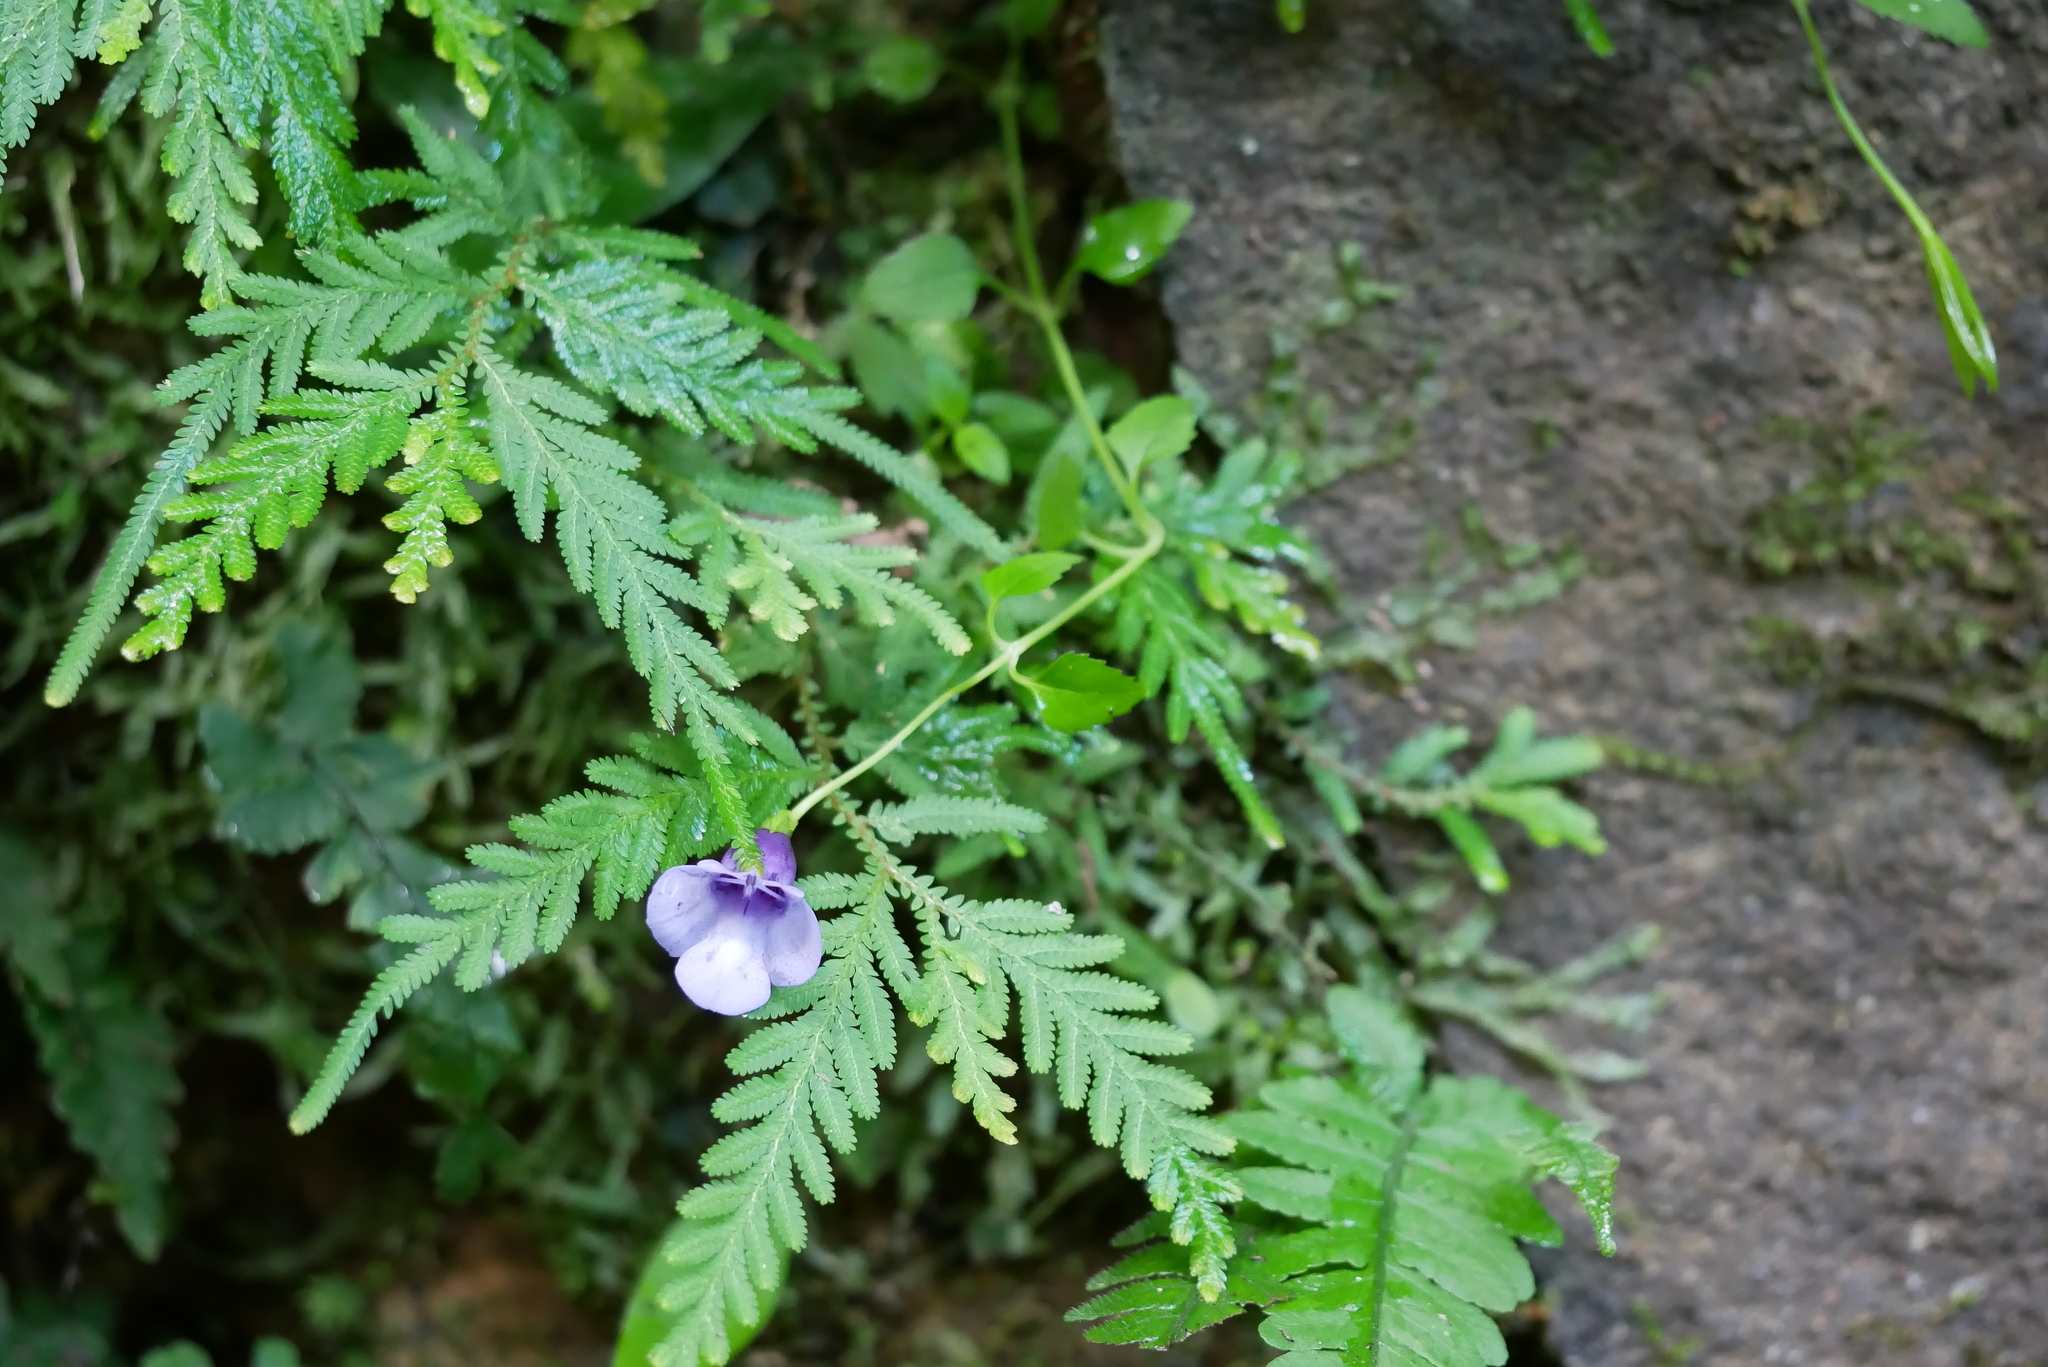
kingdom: Plantae
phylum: Tracheophyta
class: Magnoliopsida
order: Lamiales
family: Linderniaceae
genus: Torenia
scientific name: Torenia concolor
